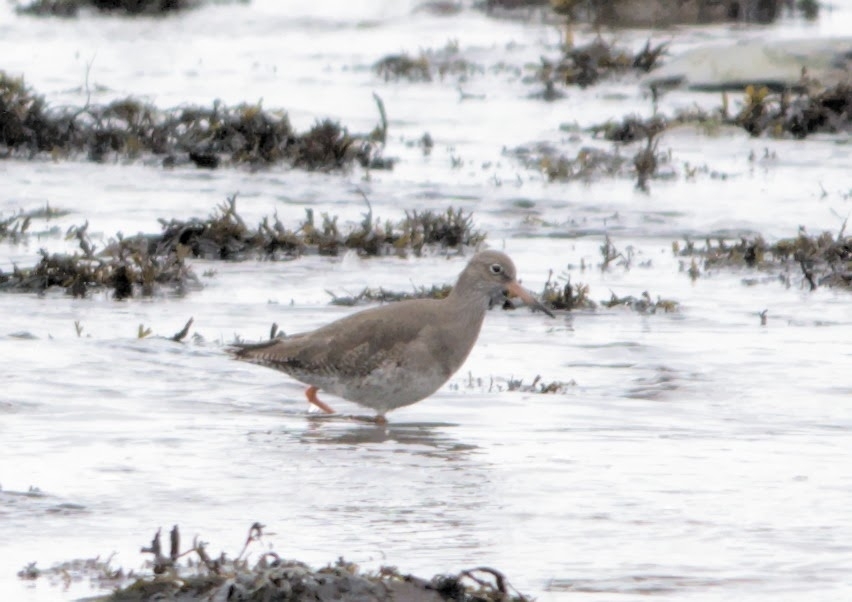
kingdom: Animalia
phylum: Chordata
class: Aves
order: Charadriiformes
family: Scolopacidae
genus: Tringa
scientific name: Tringa totanus
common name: Common redshank
